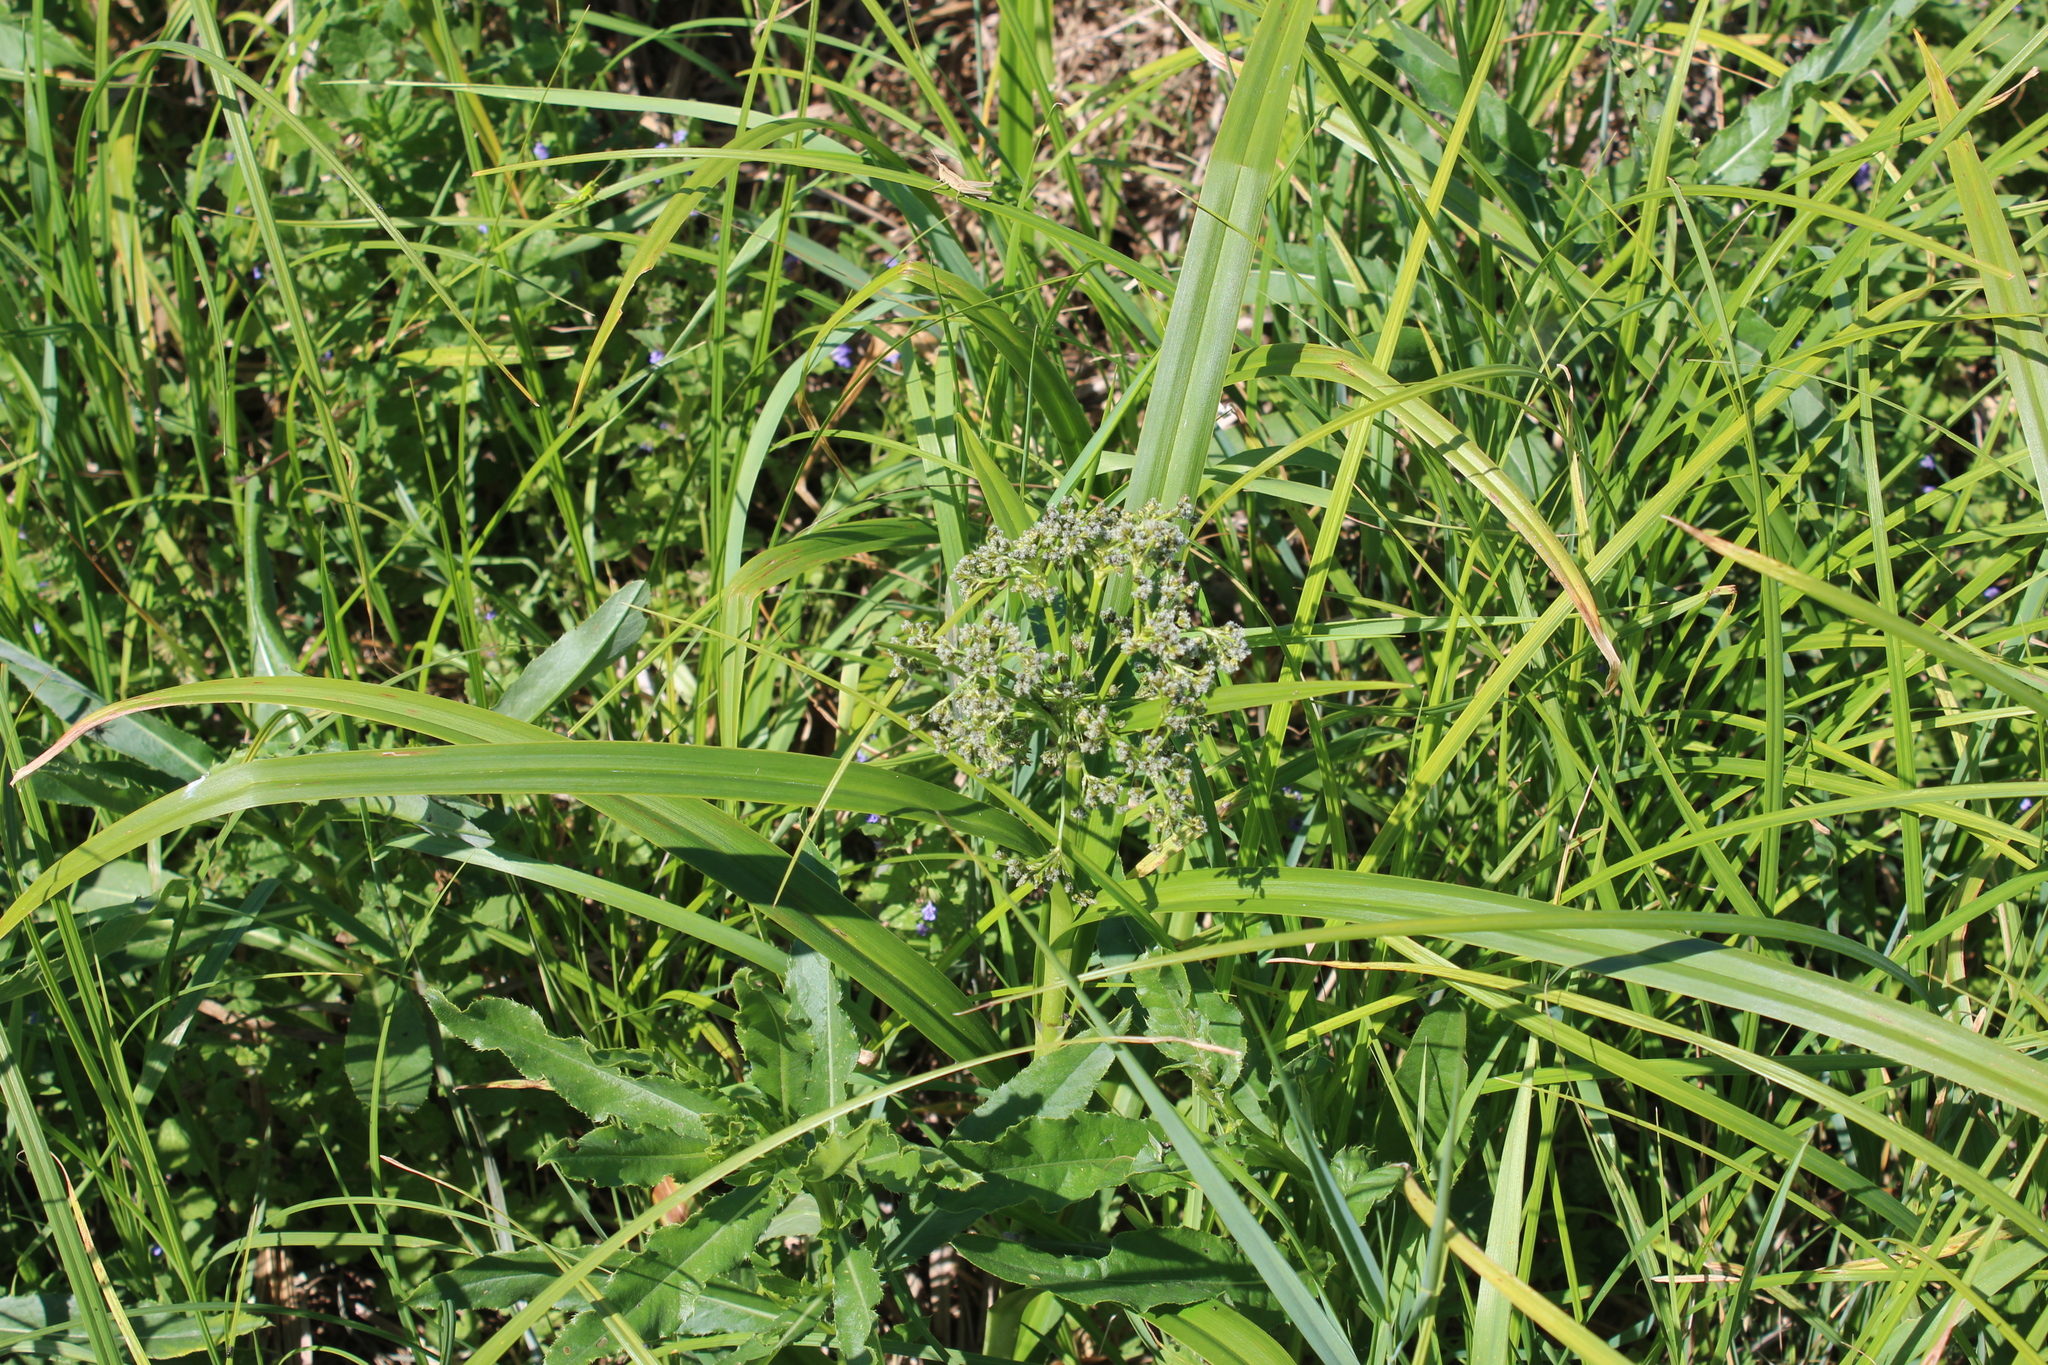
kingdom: Plantae
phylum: Tracheophyta
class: Liliopsida
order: Poales
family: Cyperaceae
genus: Scirpus
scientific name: Scirpus sylvaticus
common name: Wood club-rush
